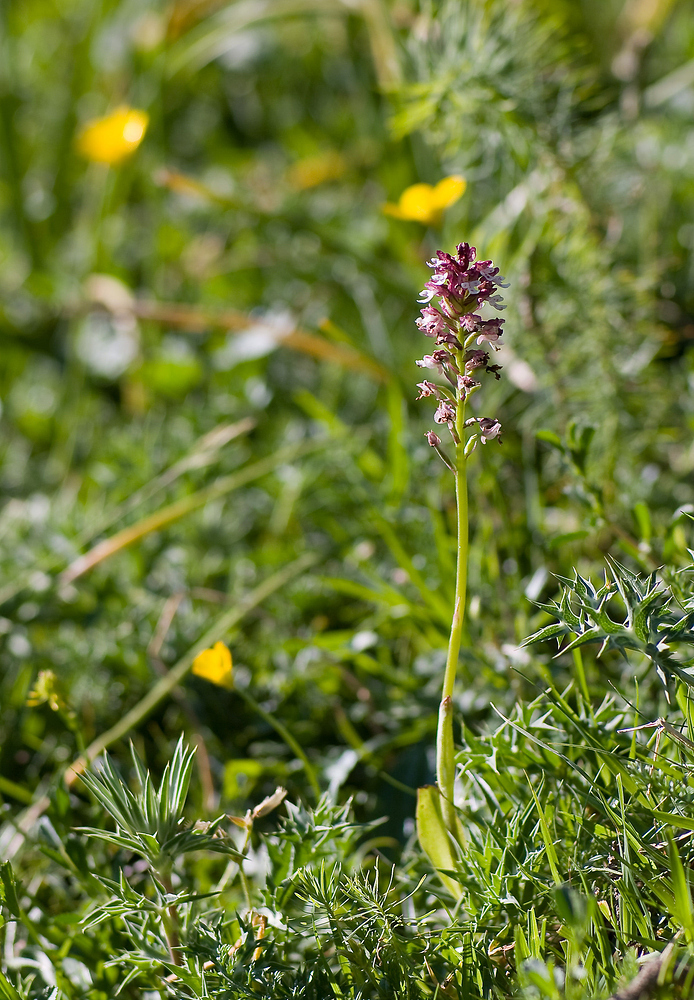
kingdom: Plantae
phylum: Tracheophyta
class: Liliopsida
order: Asparagales
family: Orchidaceae
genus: Neotinea
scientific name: Neotinea ustulata
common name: Burnt orchid
